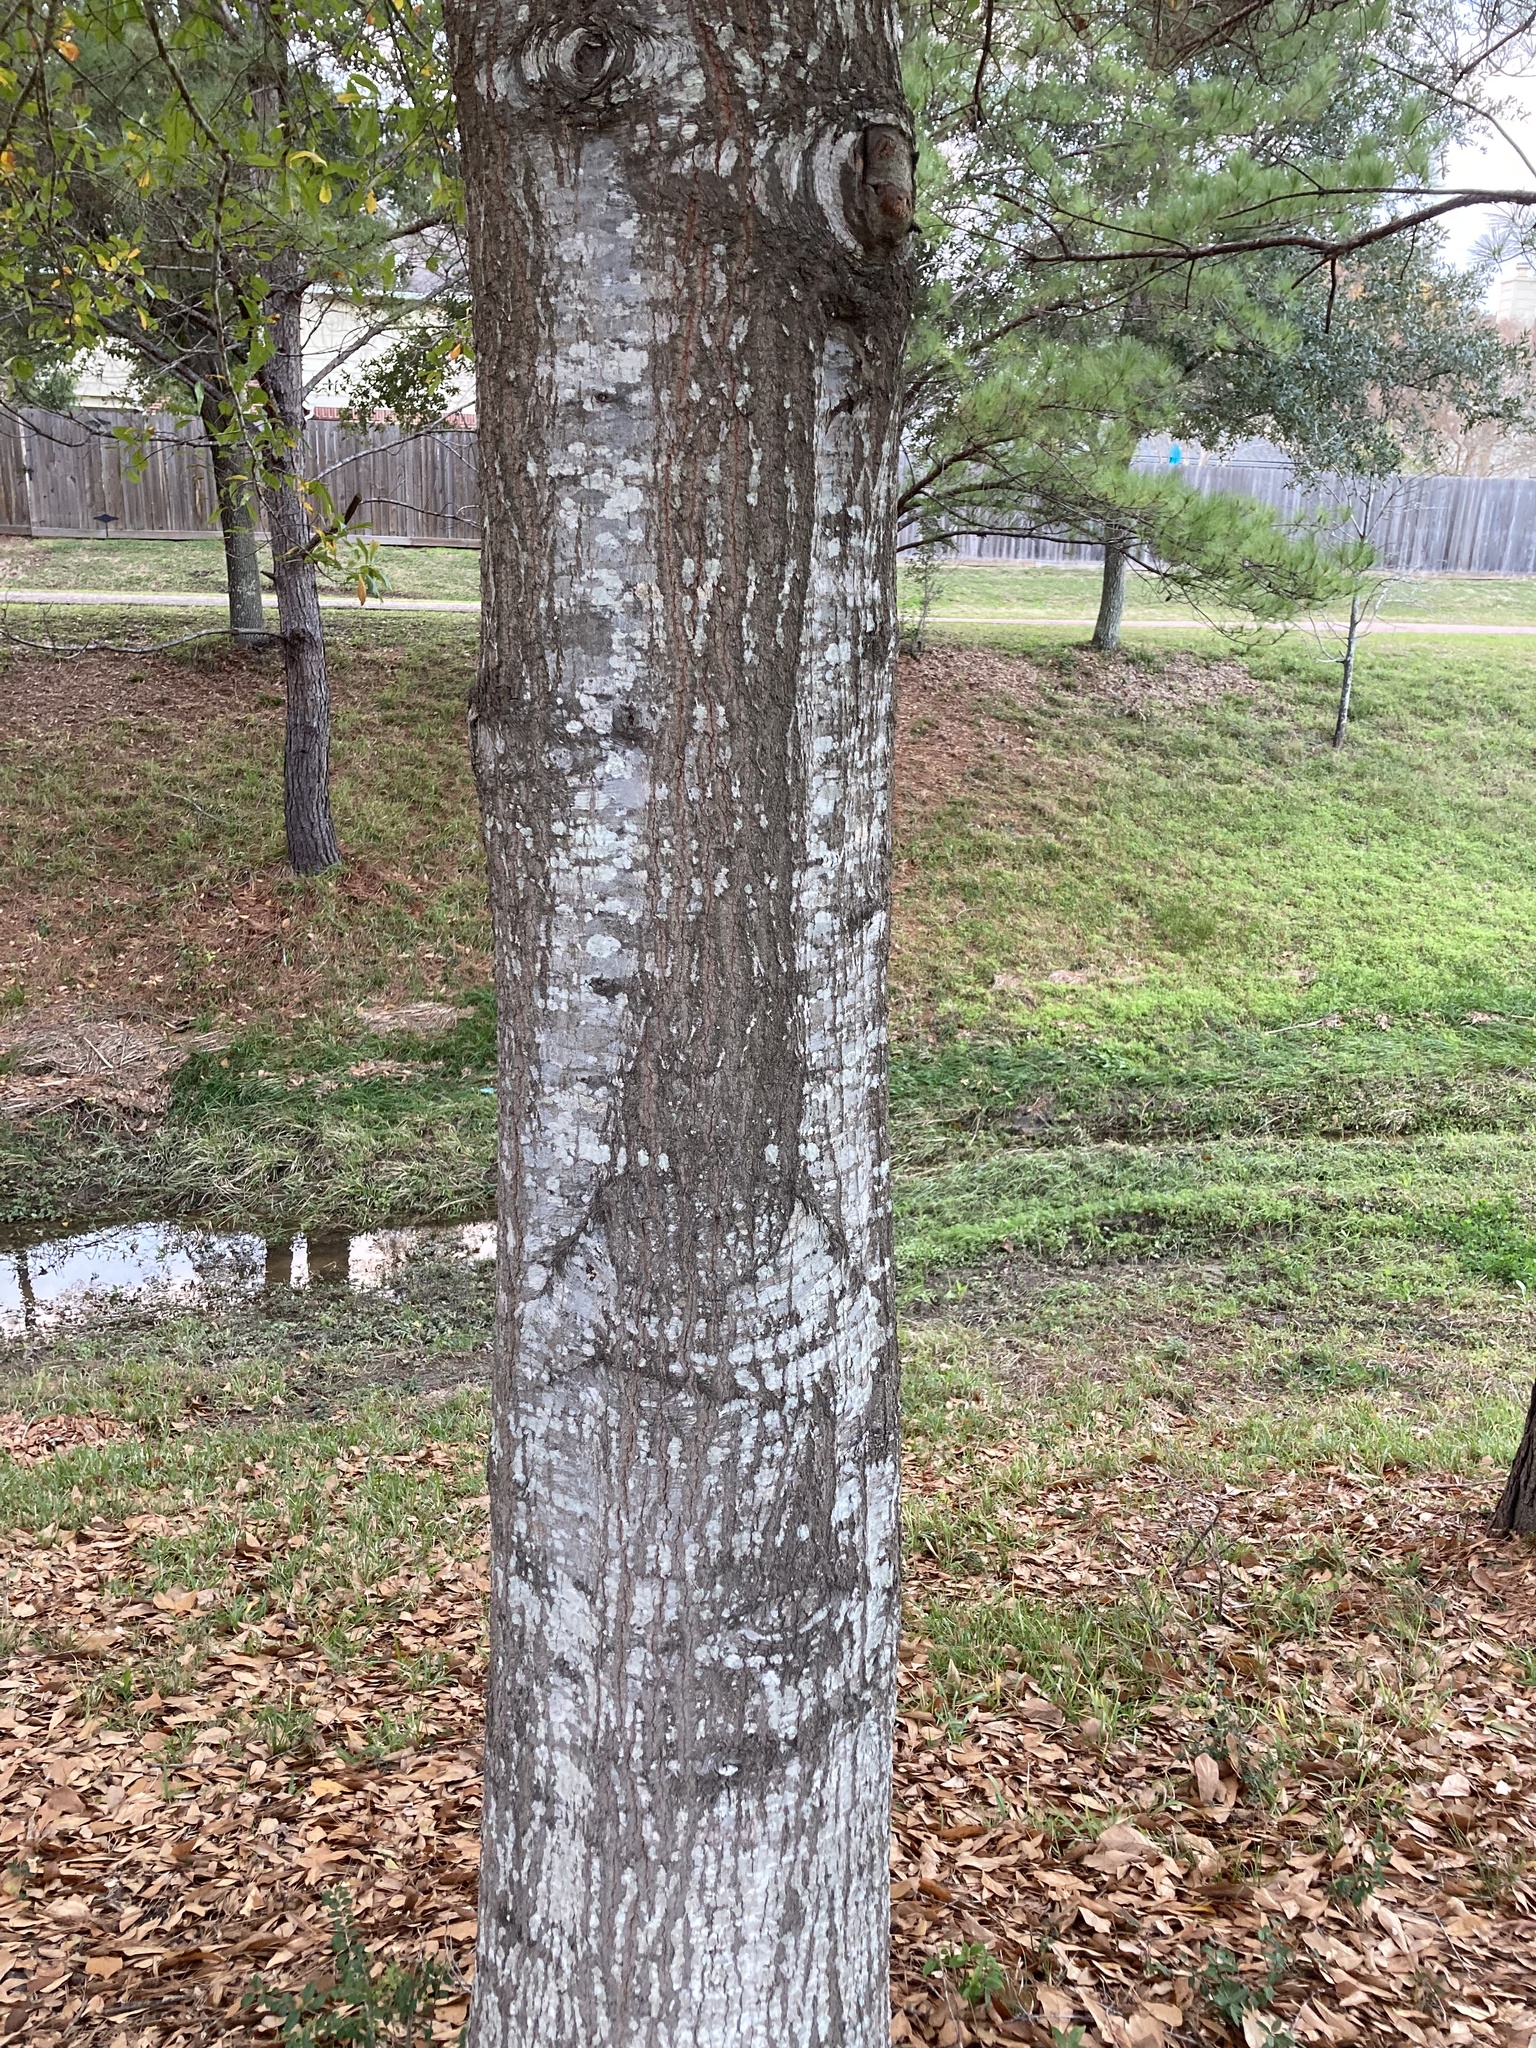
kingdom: Plantae
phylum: Tracheophyta
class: Magnoliopsida
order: Fagales
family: Fagaceae
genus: Quercus
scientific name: Quercus nigra
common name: Water oak
